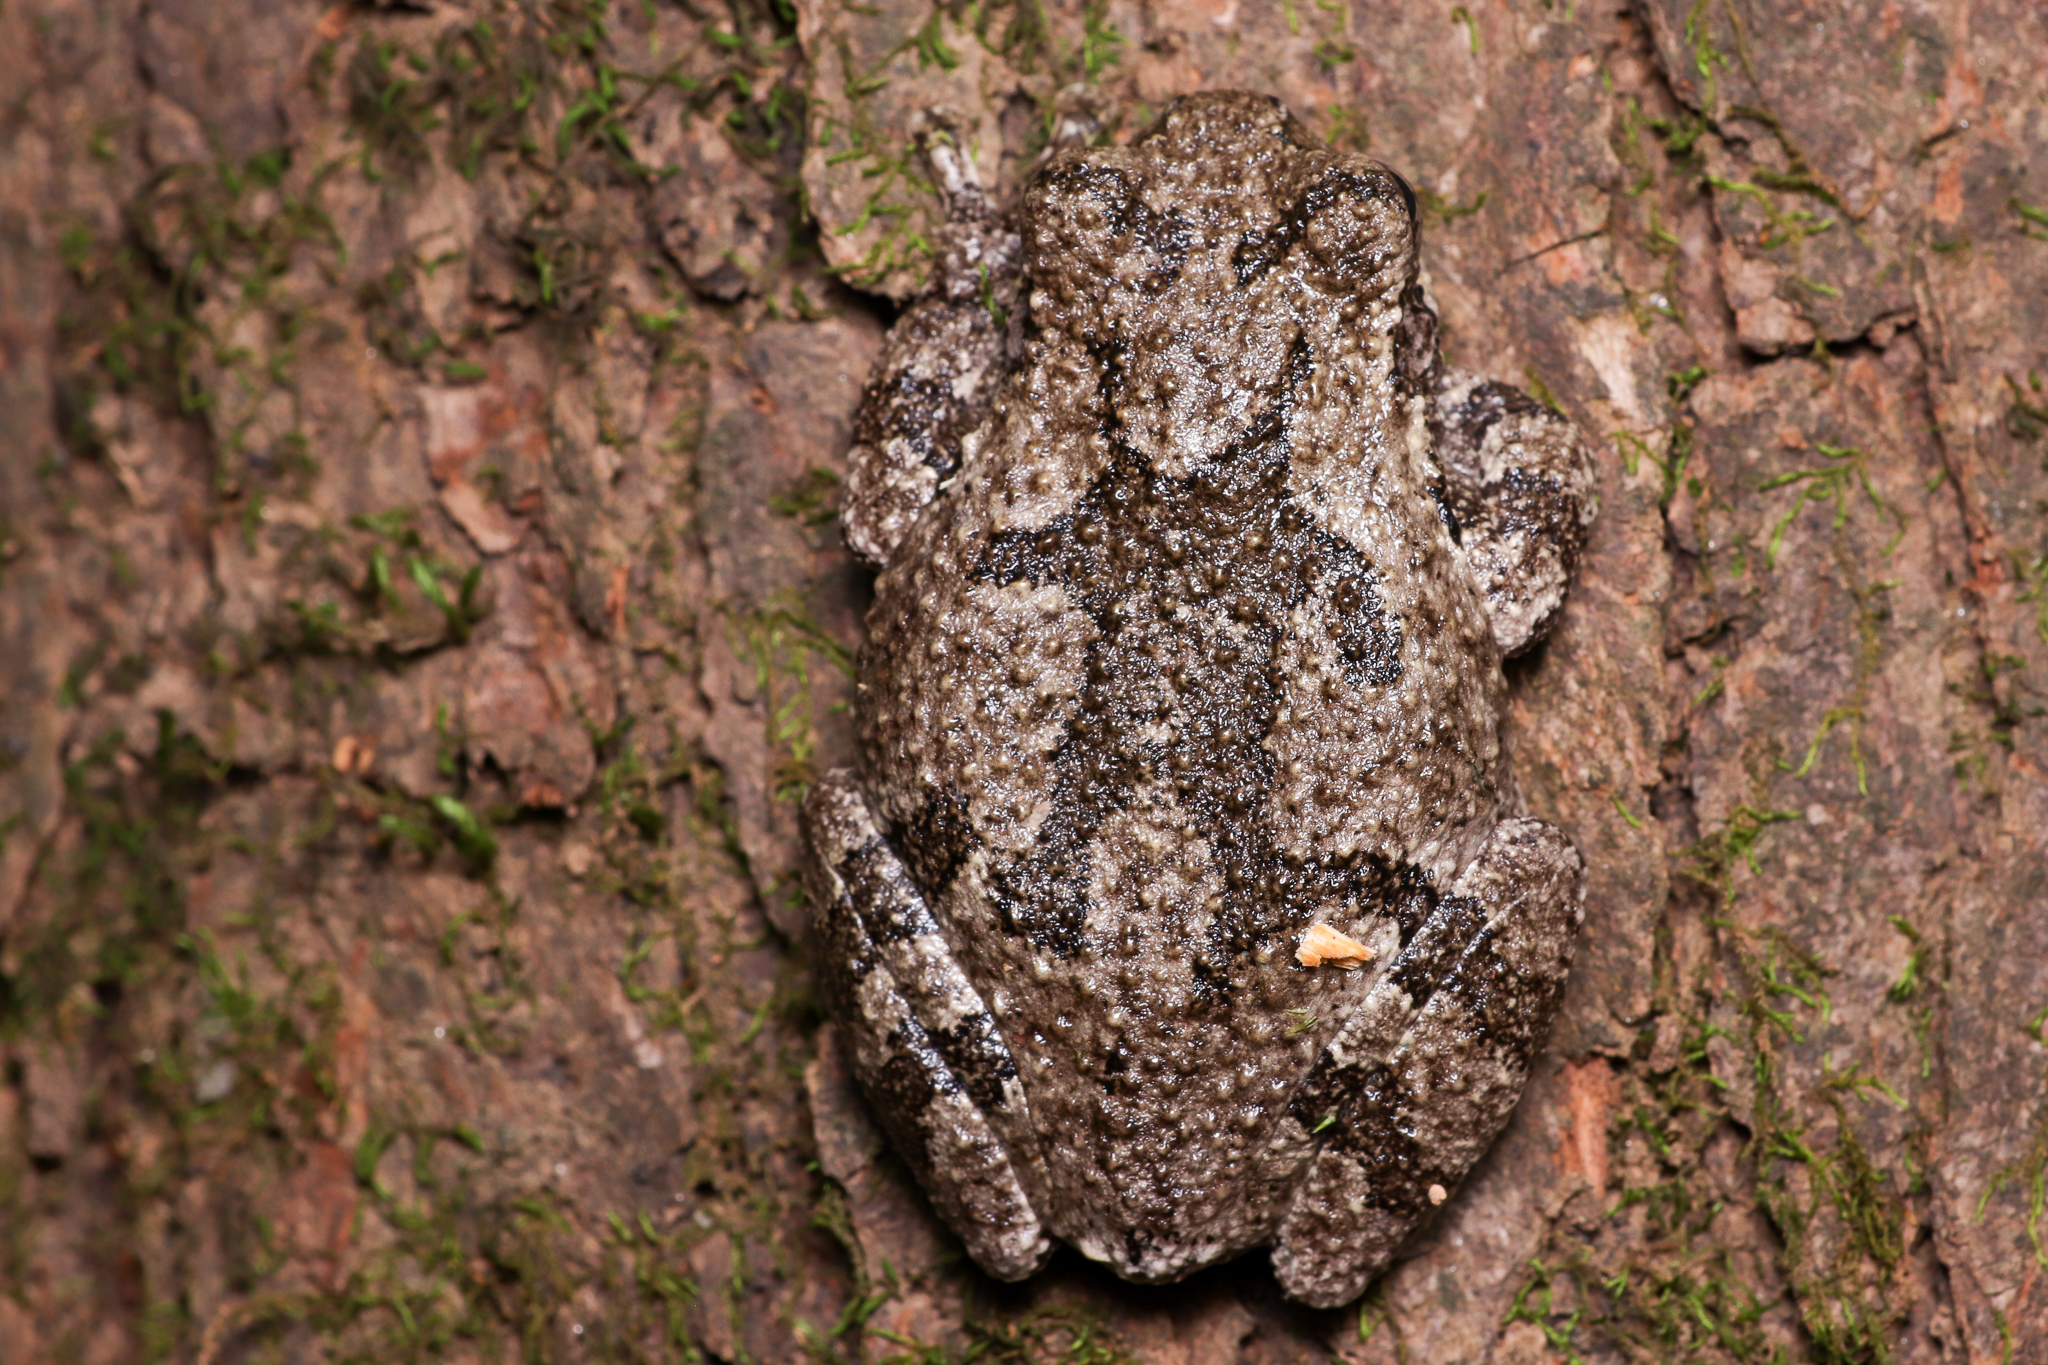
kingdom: Animalia
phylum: Chordata
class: Amphibia
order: Anura
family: Hylidae
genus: Dryophytes
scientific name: Dryophytes chrysoscelis
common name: Cope's gray treefrog
